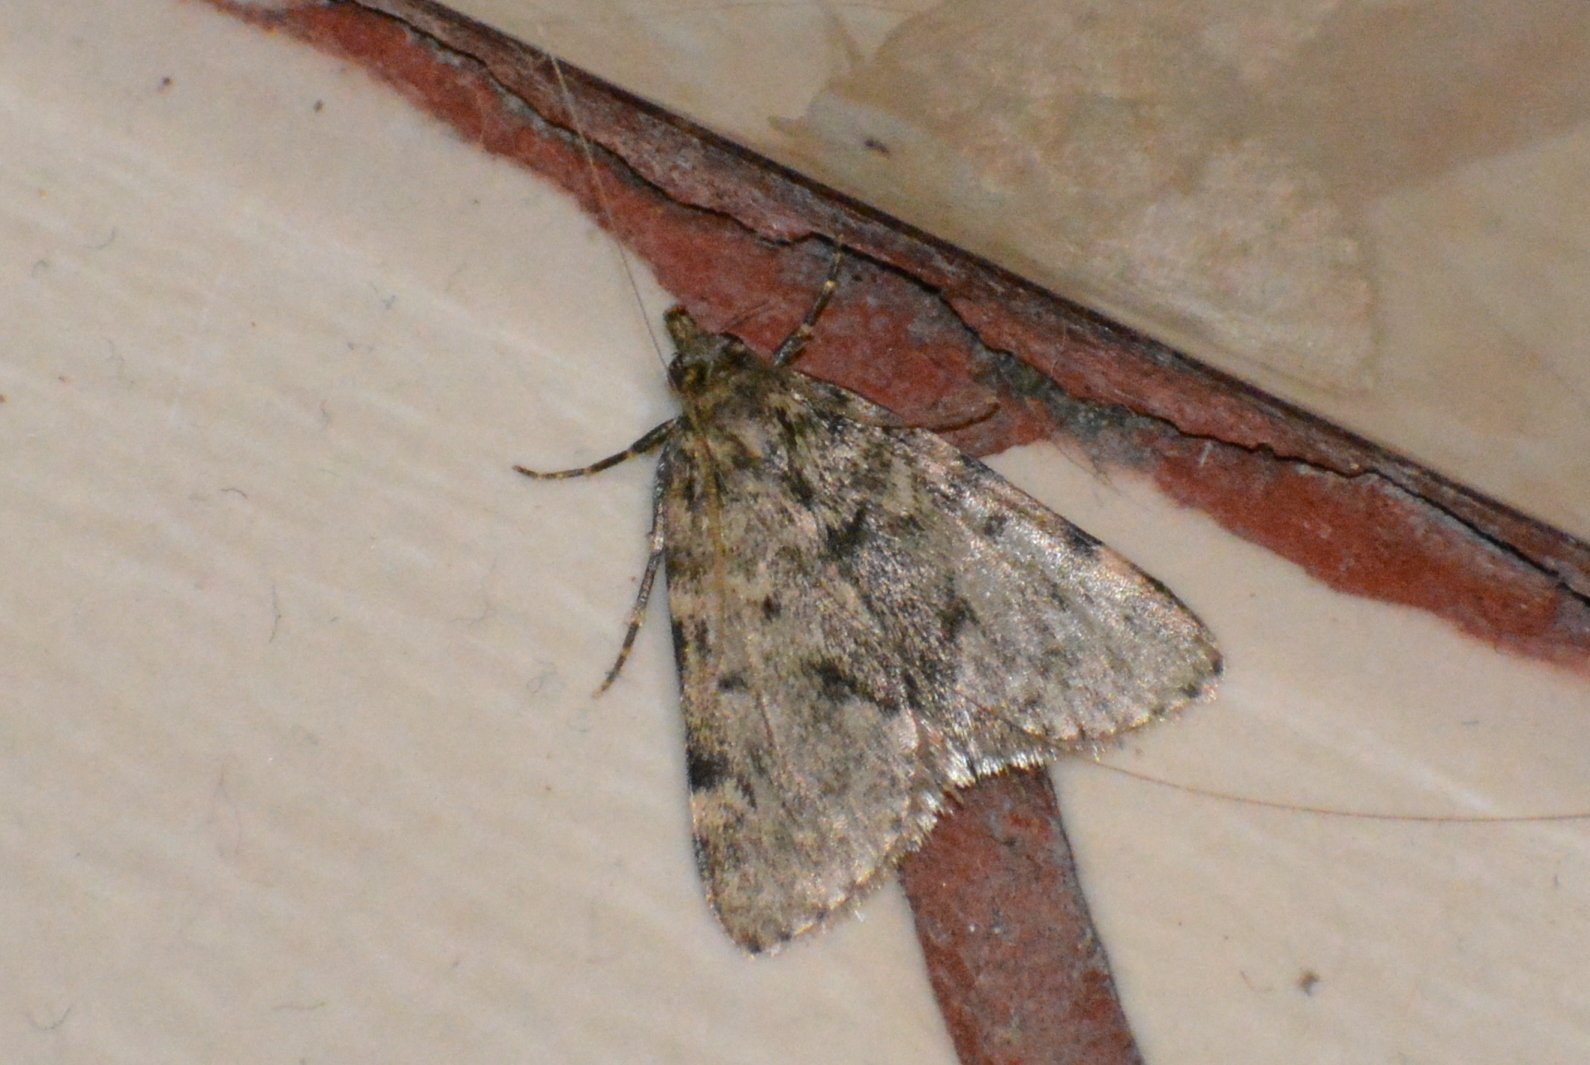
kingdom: Animalia
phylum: Arthropoda
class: Insecta
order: Lepidoptera
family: Pyralidae
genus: Aglossa
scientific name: Aglossa pinguinalis
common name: Large tabby
